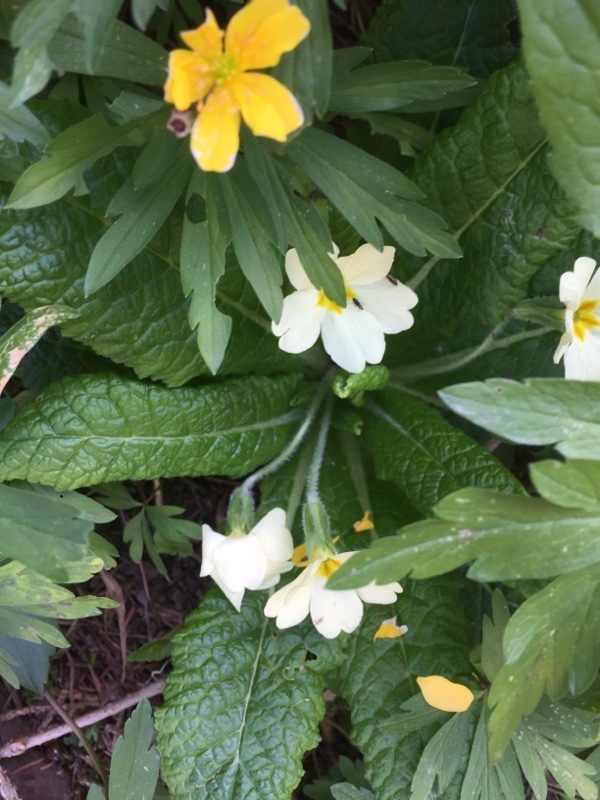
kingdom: Plantae
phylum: Tracheophyta
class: Magnoliopsida
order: Ericales
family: Primulaceae
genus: Primula
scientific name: Primula vulgaris
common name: Primrose
